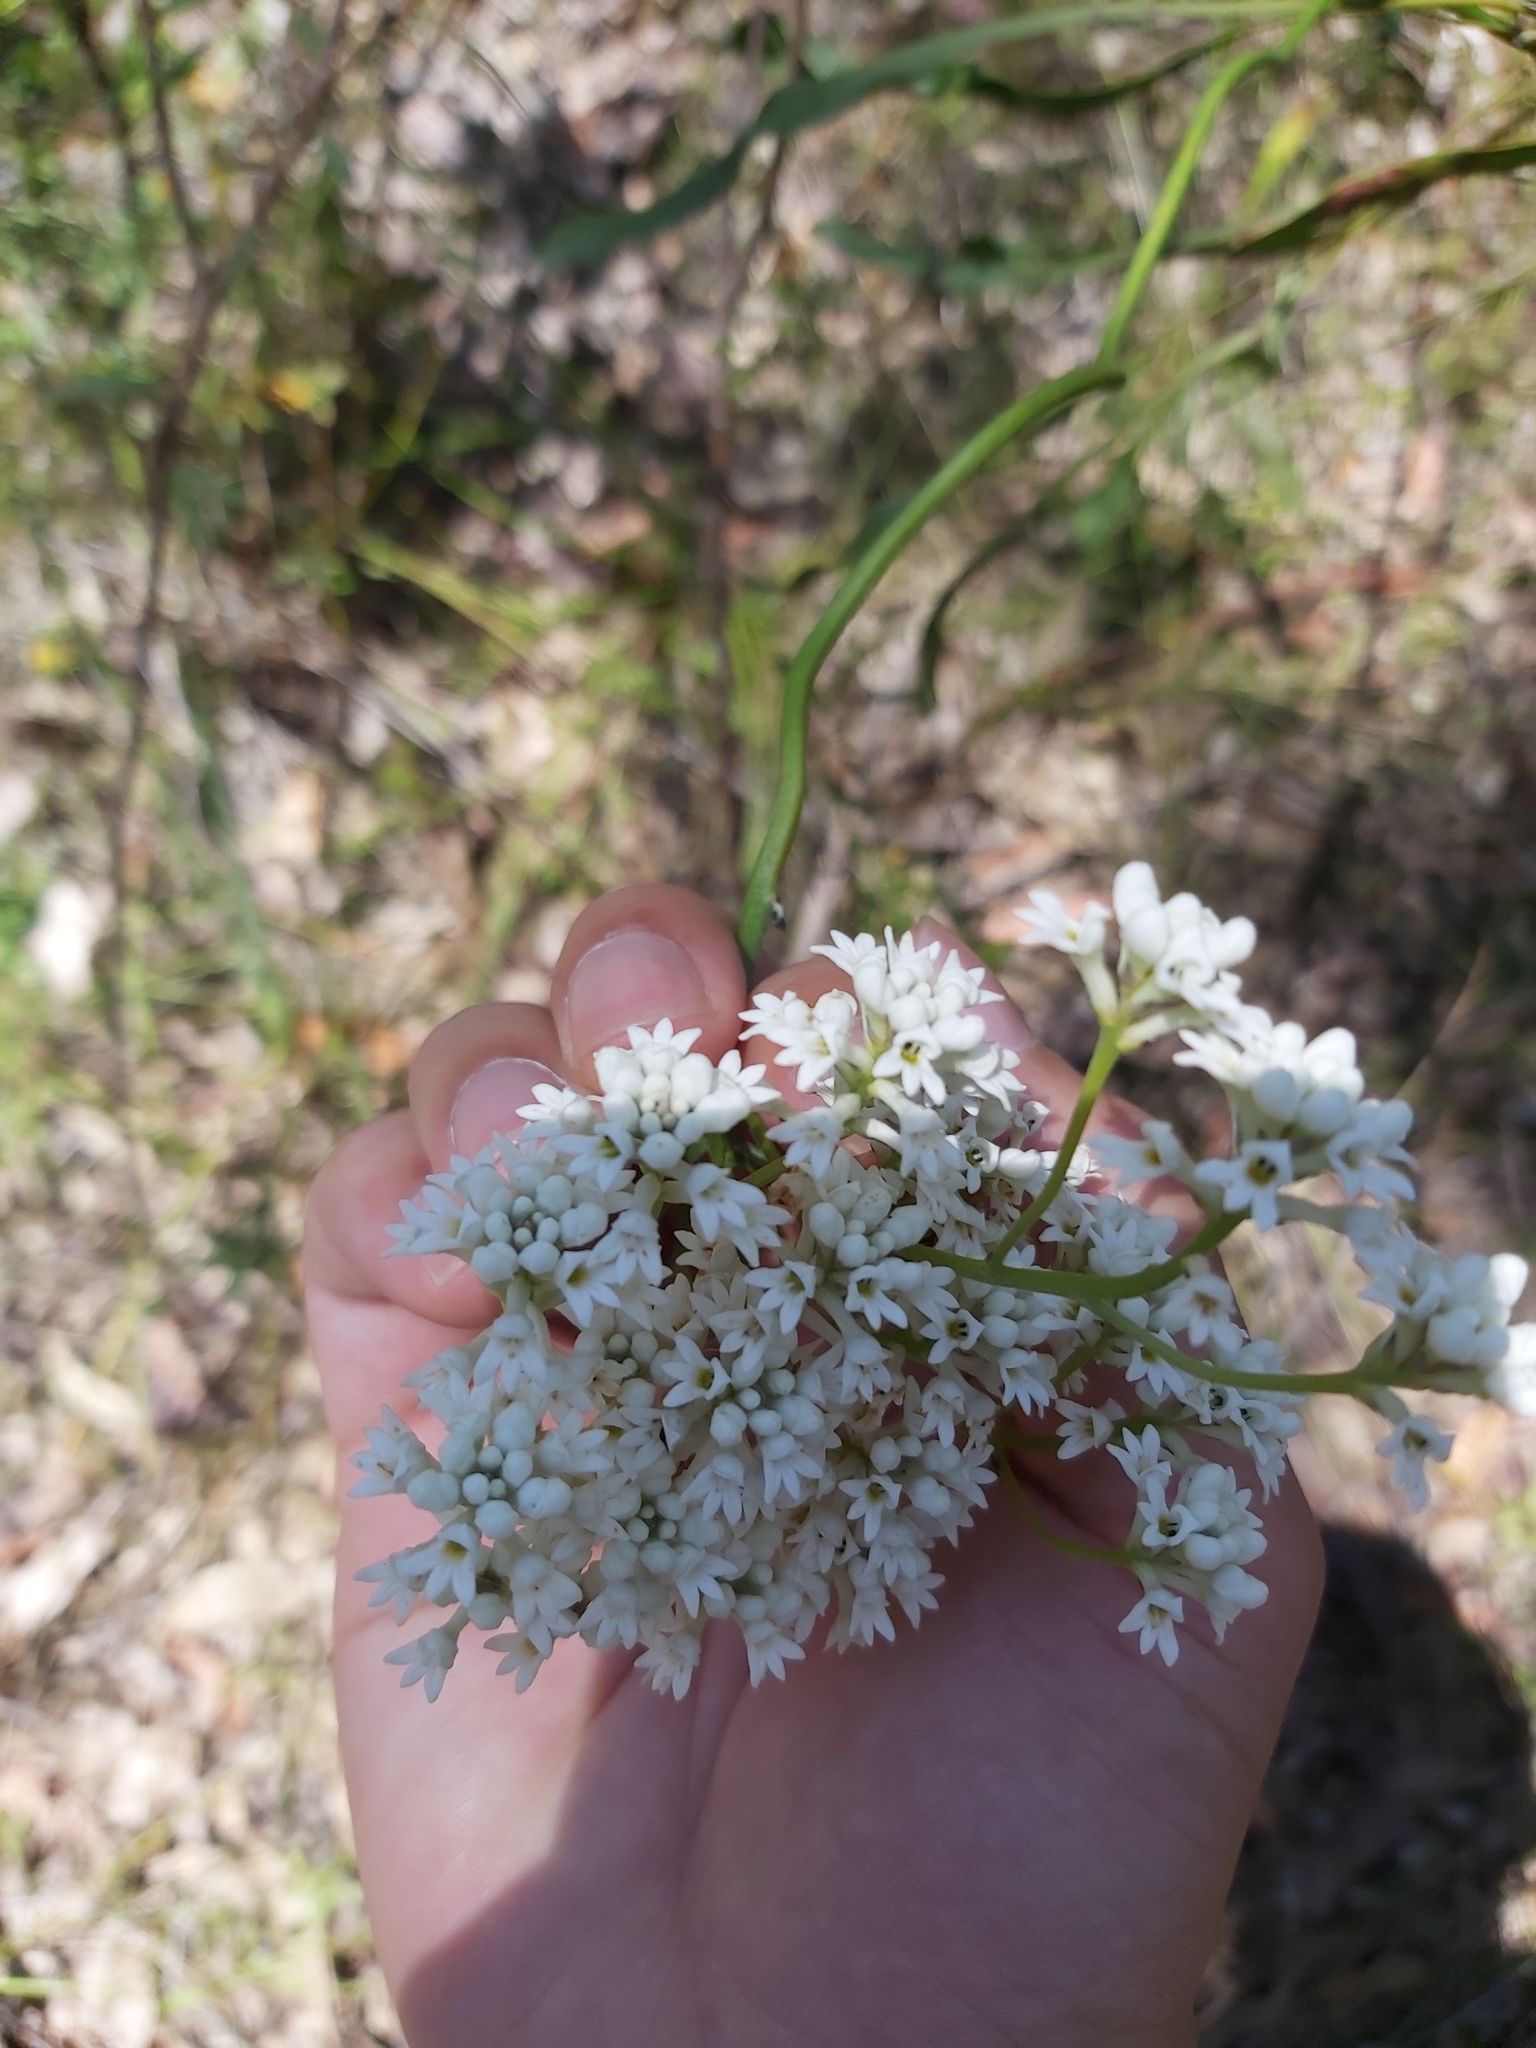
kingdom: Plantae
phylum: Tracheophyta
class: Magnoliopsida
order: Proteales
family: Proteaceae
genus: Conospermum
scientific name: Conospermum longifolium
